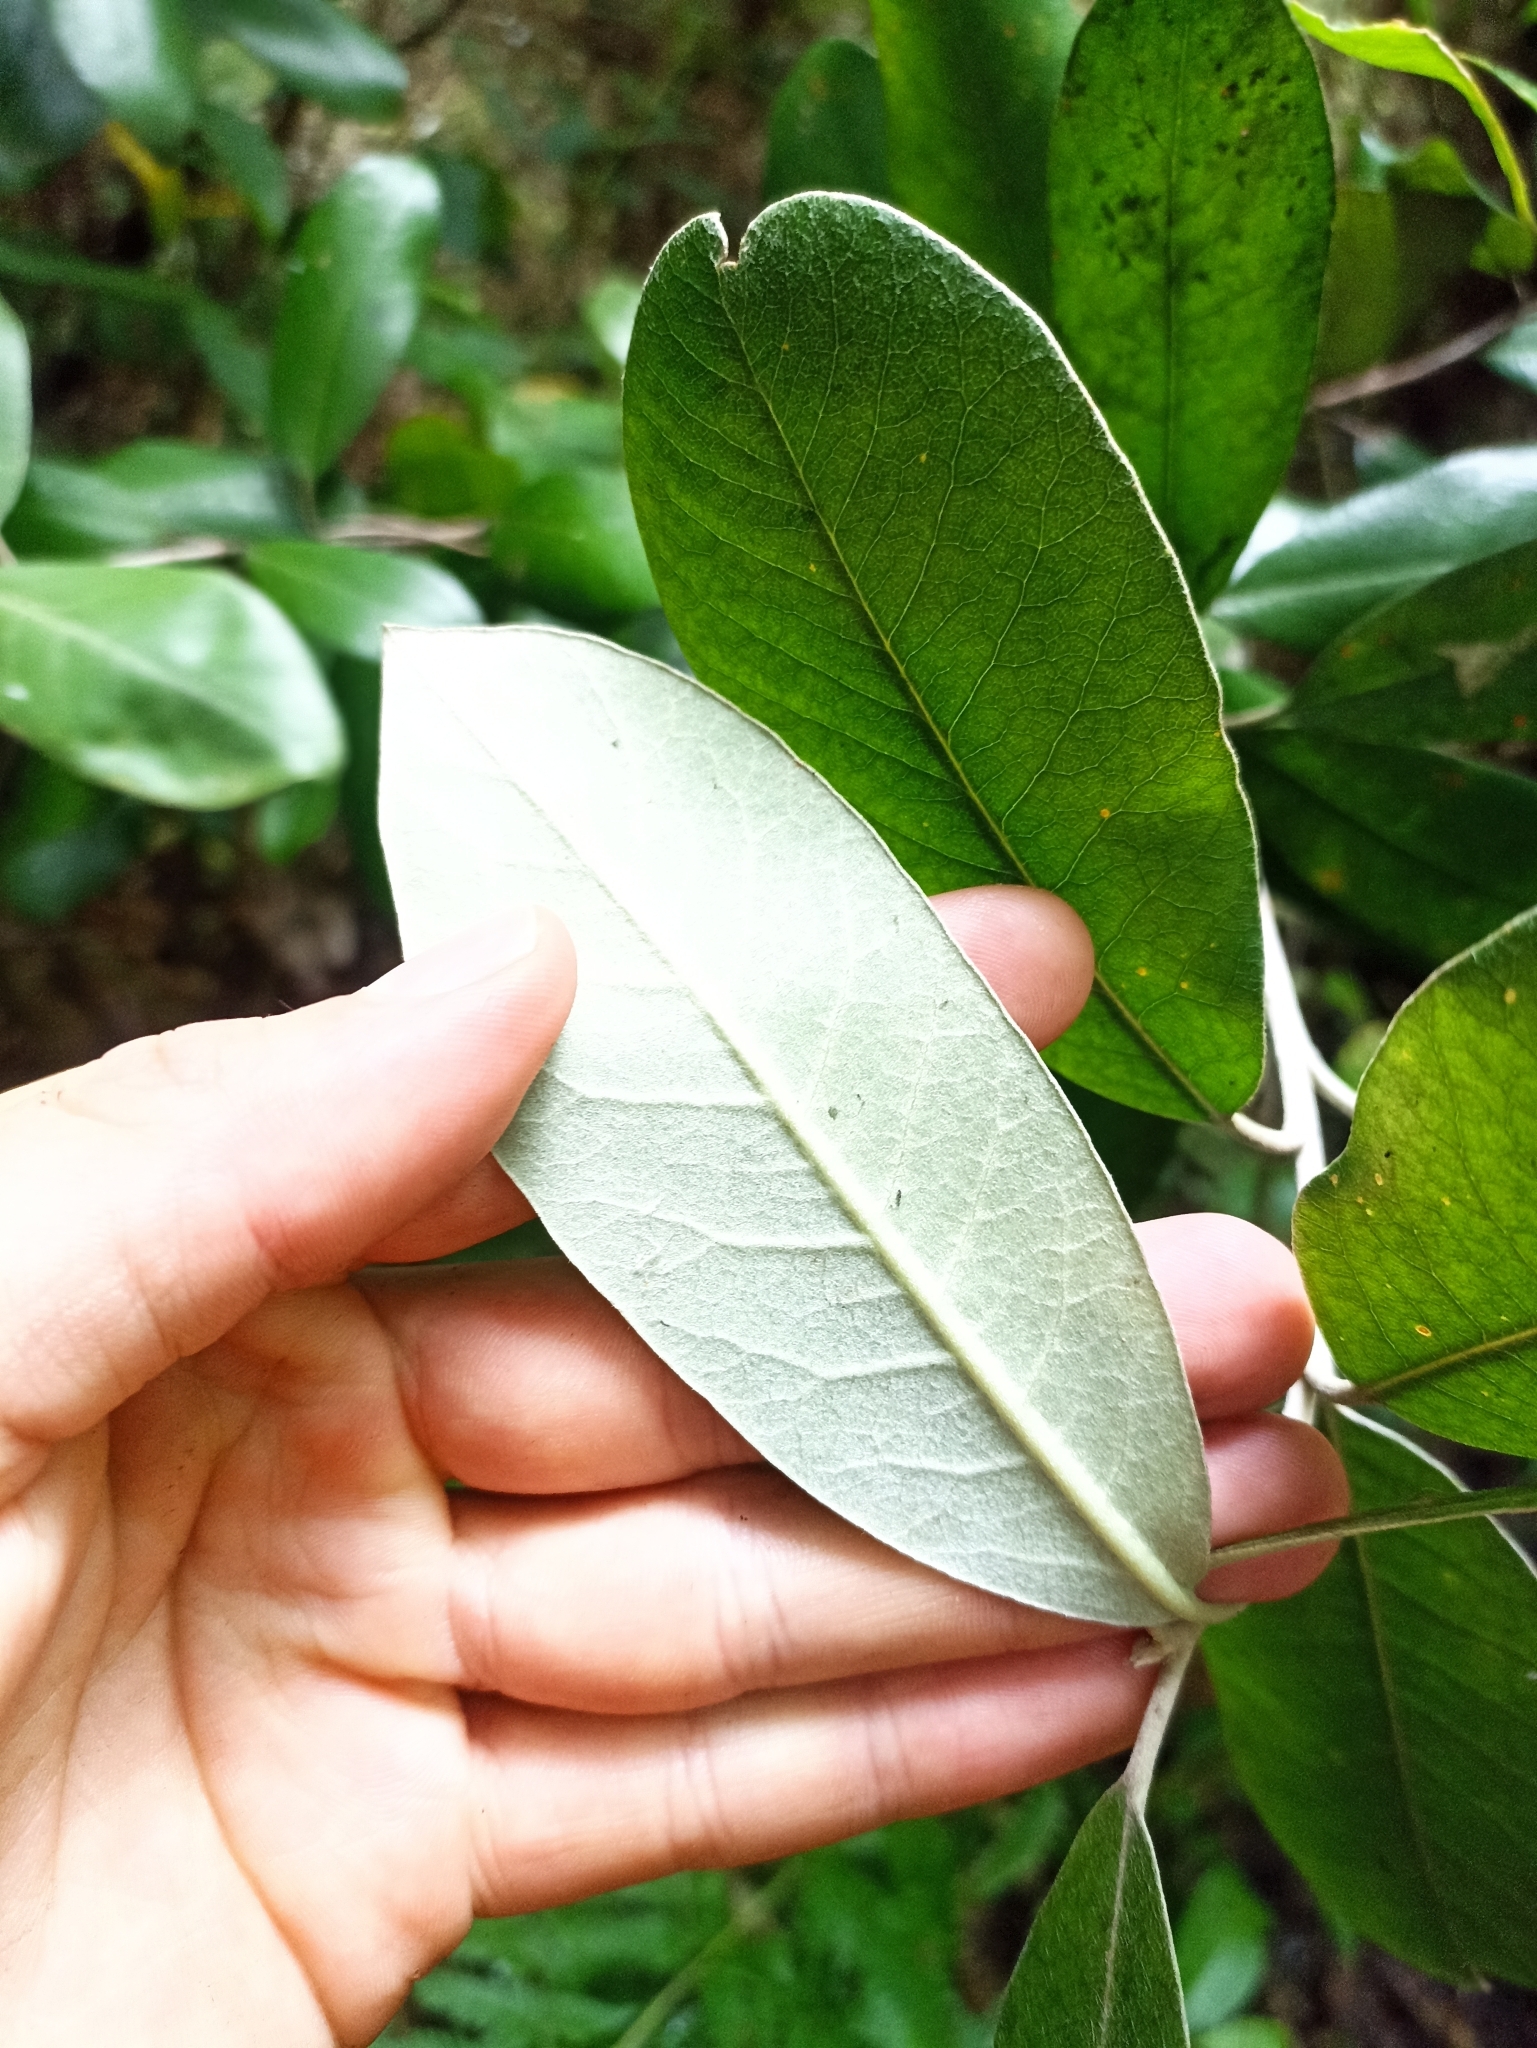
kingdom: Plantae
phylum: Tracheophyta
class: Magnoliopsida
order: Apiales
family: Pittosporaceae
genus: Pittosporum
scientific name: Pittosporum ralphii
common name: Ralph's desertwillow
